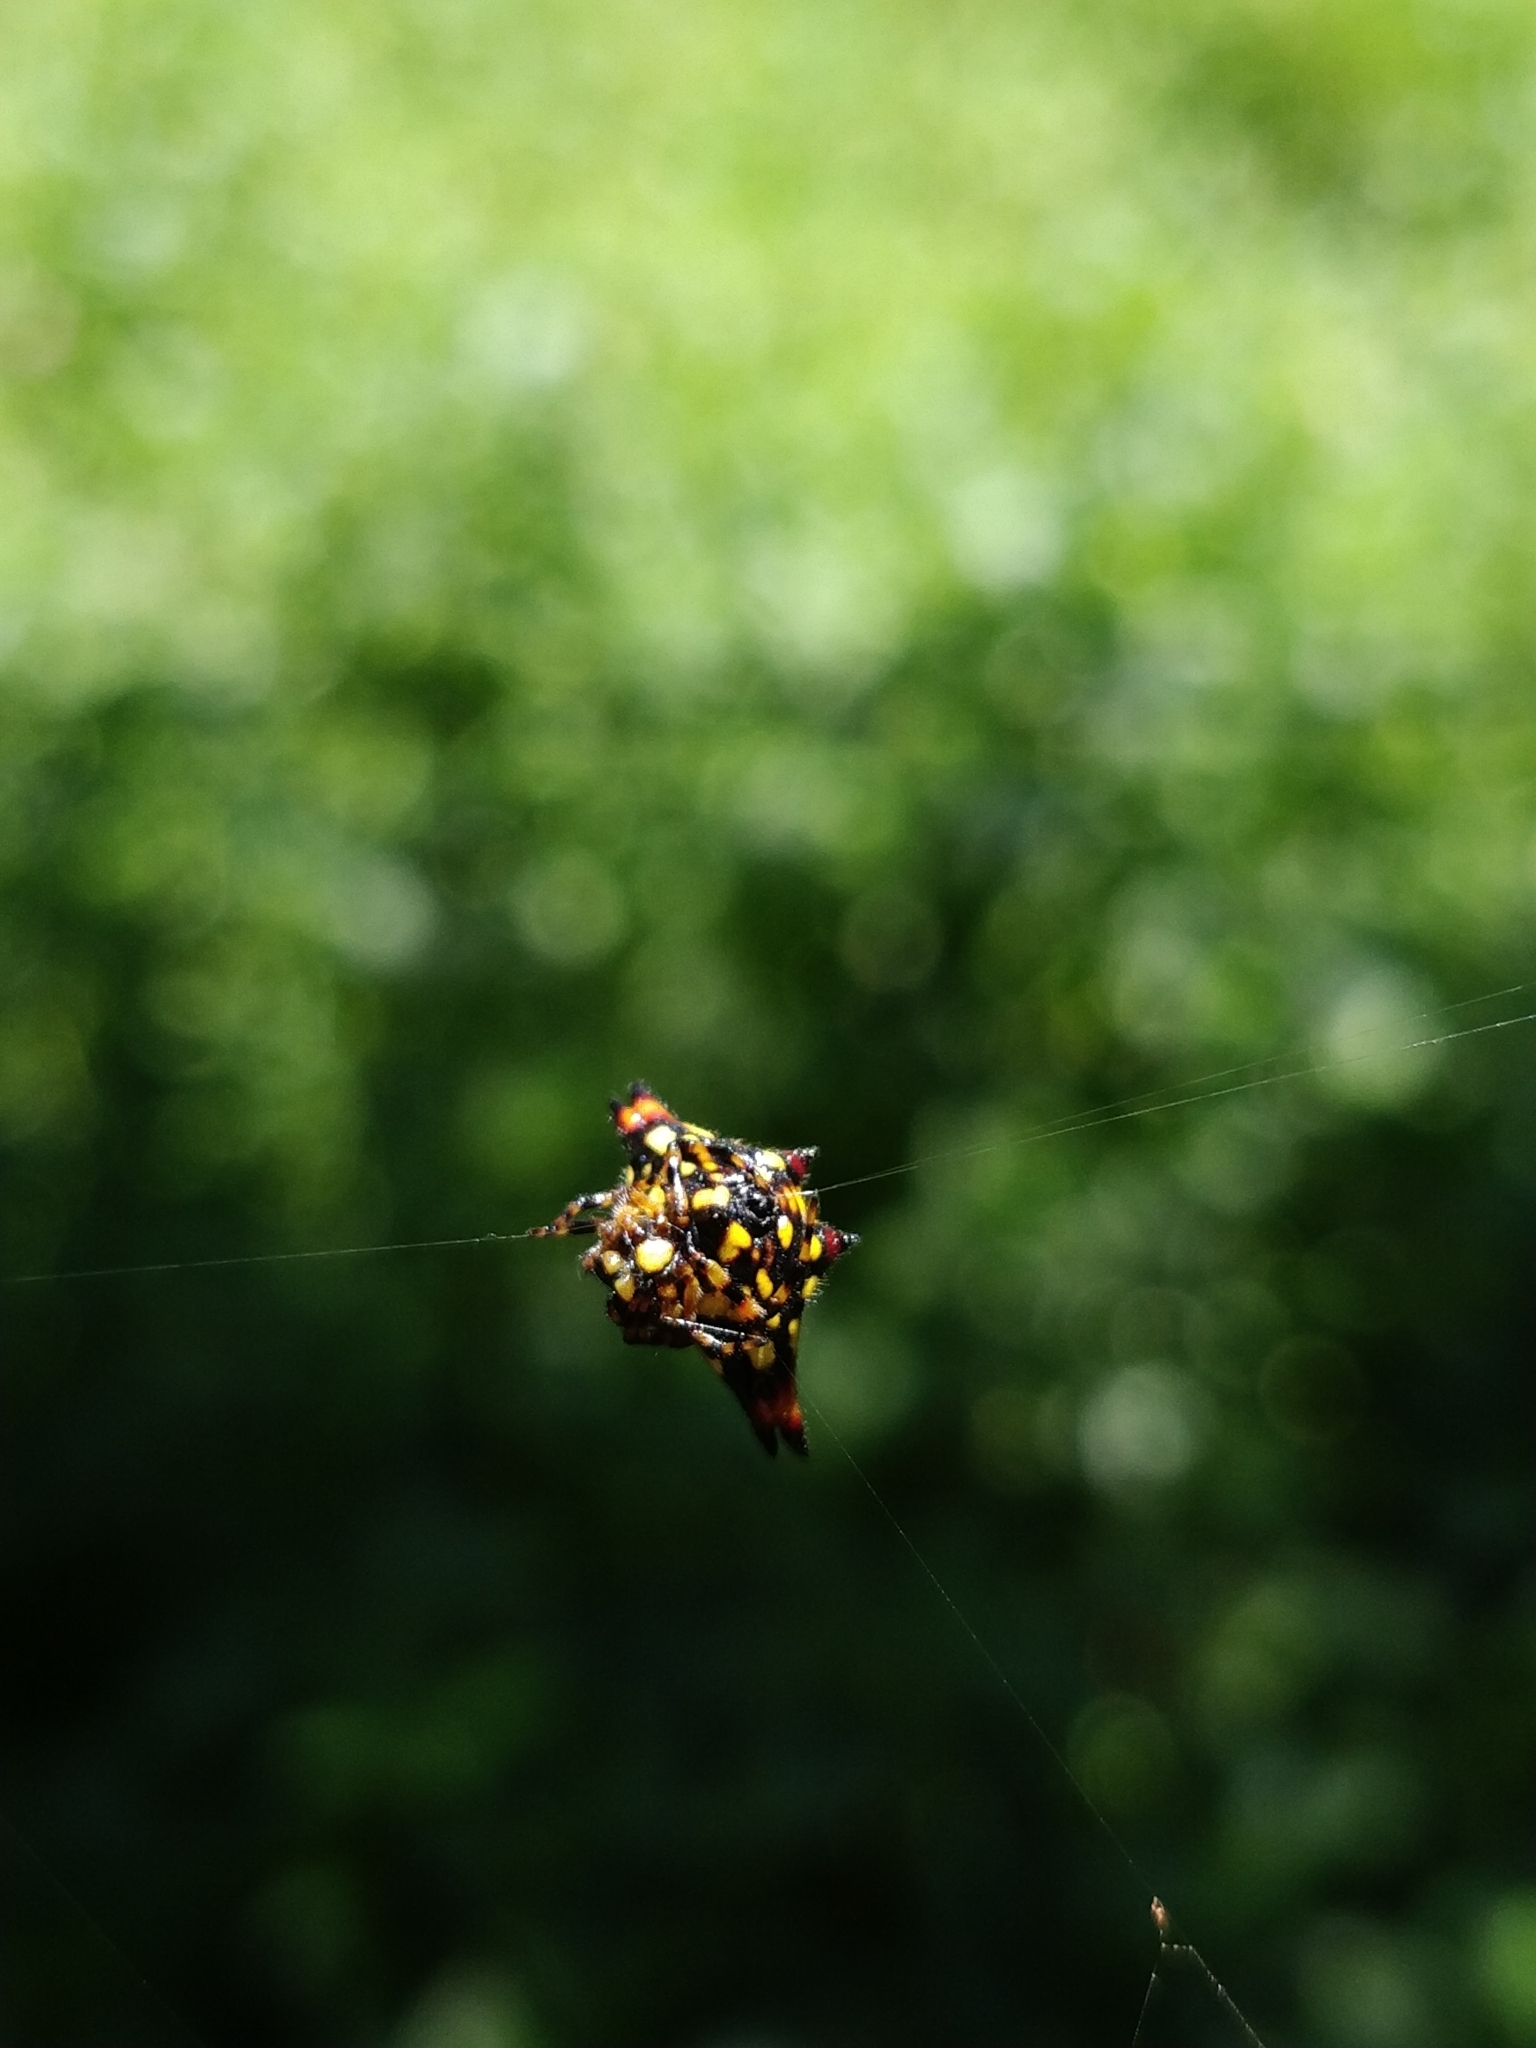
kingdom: Animalia
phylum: Arthropoda
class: Arachnida
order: Araneae
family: Araneidae
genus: Gasteracantha
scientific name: Gasteracantha geminata
